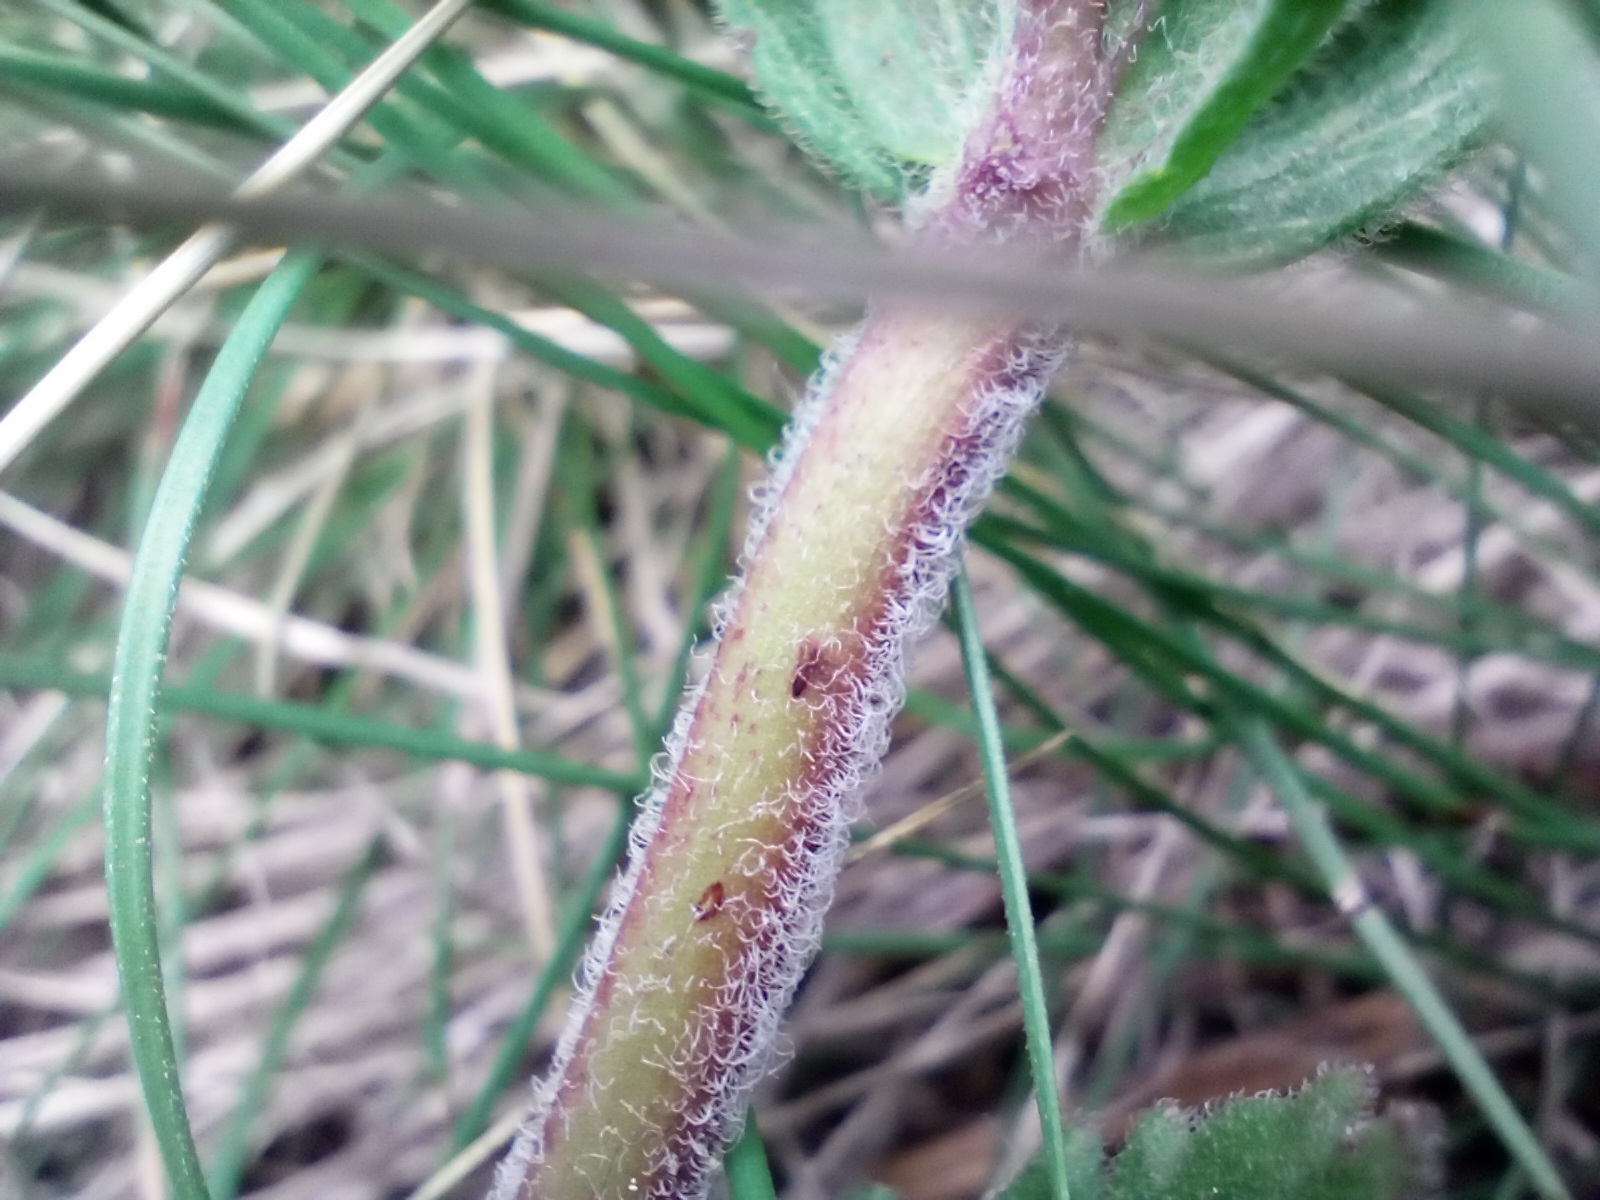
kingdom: Plantae
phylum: Tracheophyta
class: Magnoliopsida
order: Lamiales
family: Plantaginaceae
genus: Veronica
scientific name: Veronica teucrium
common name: Large speedwell
